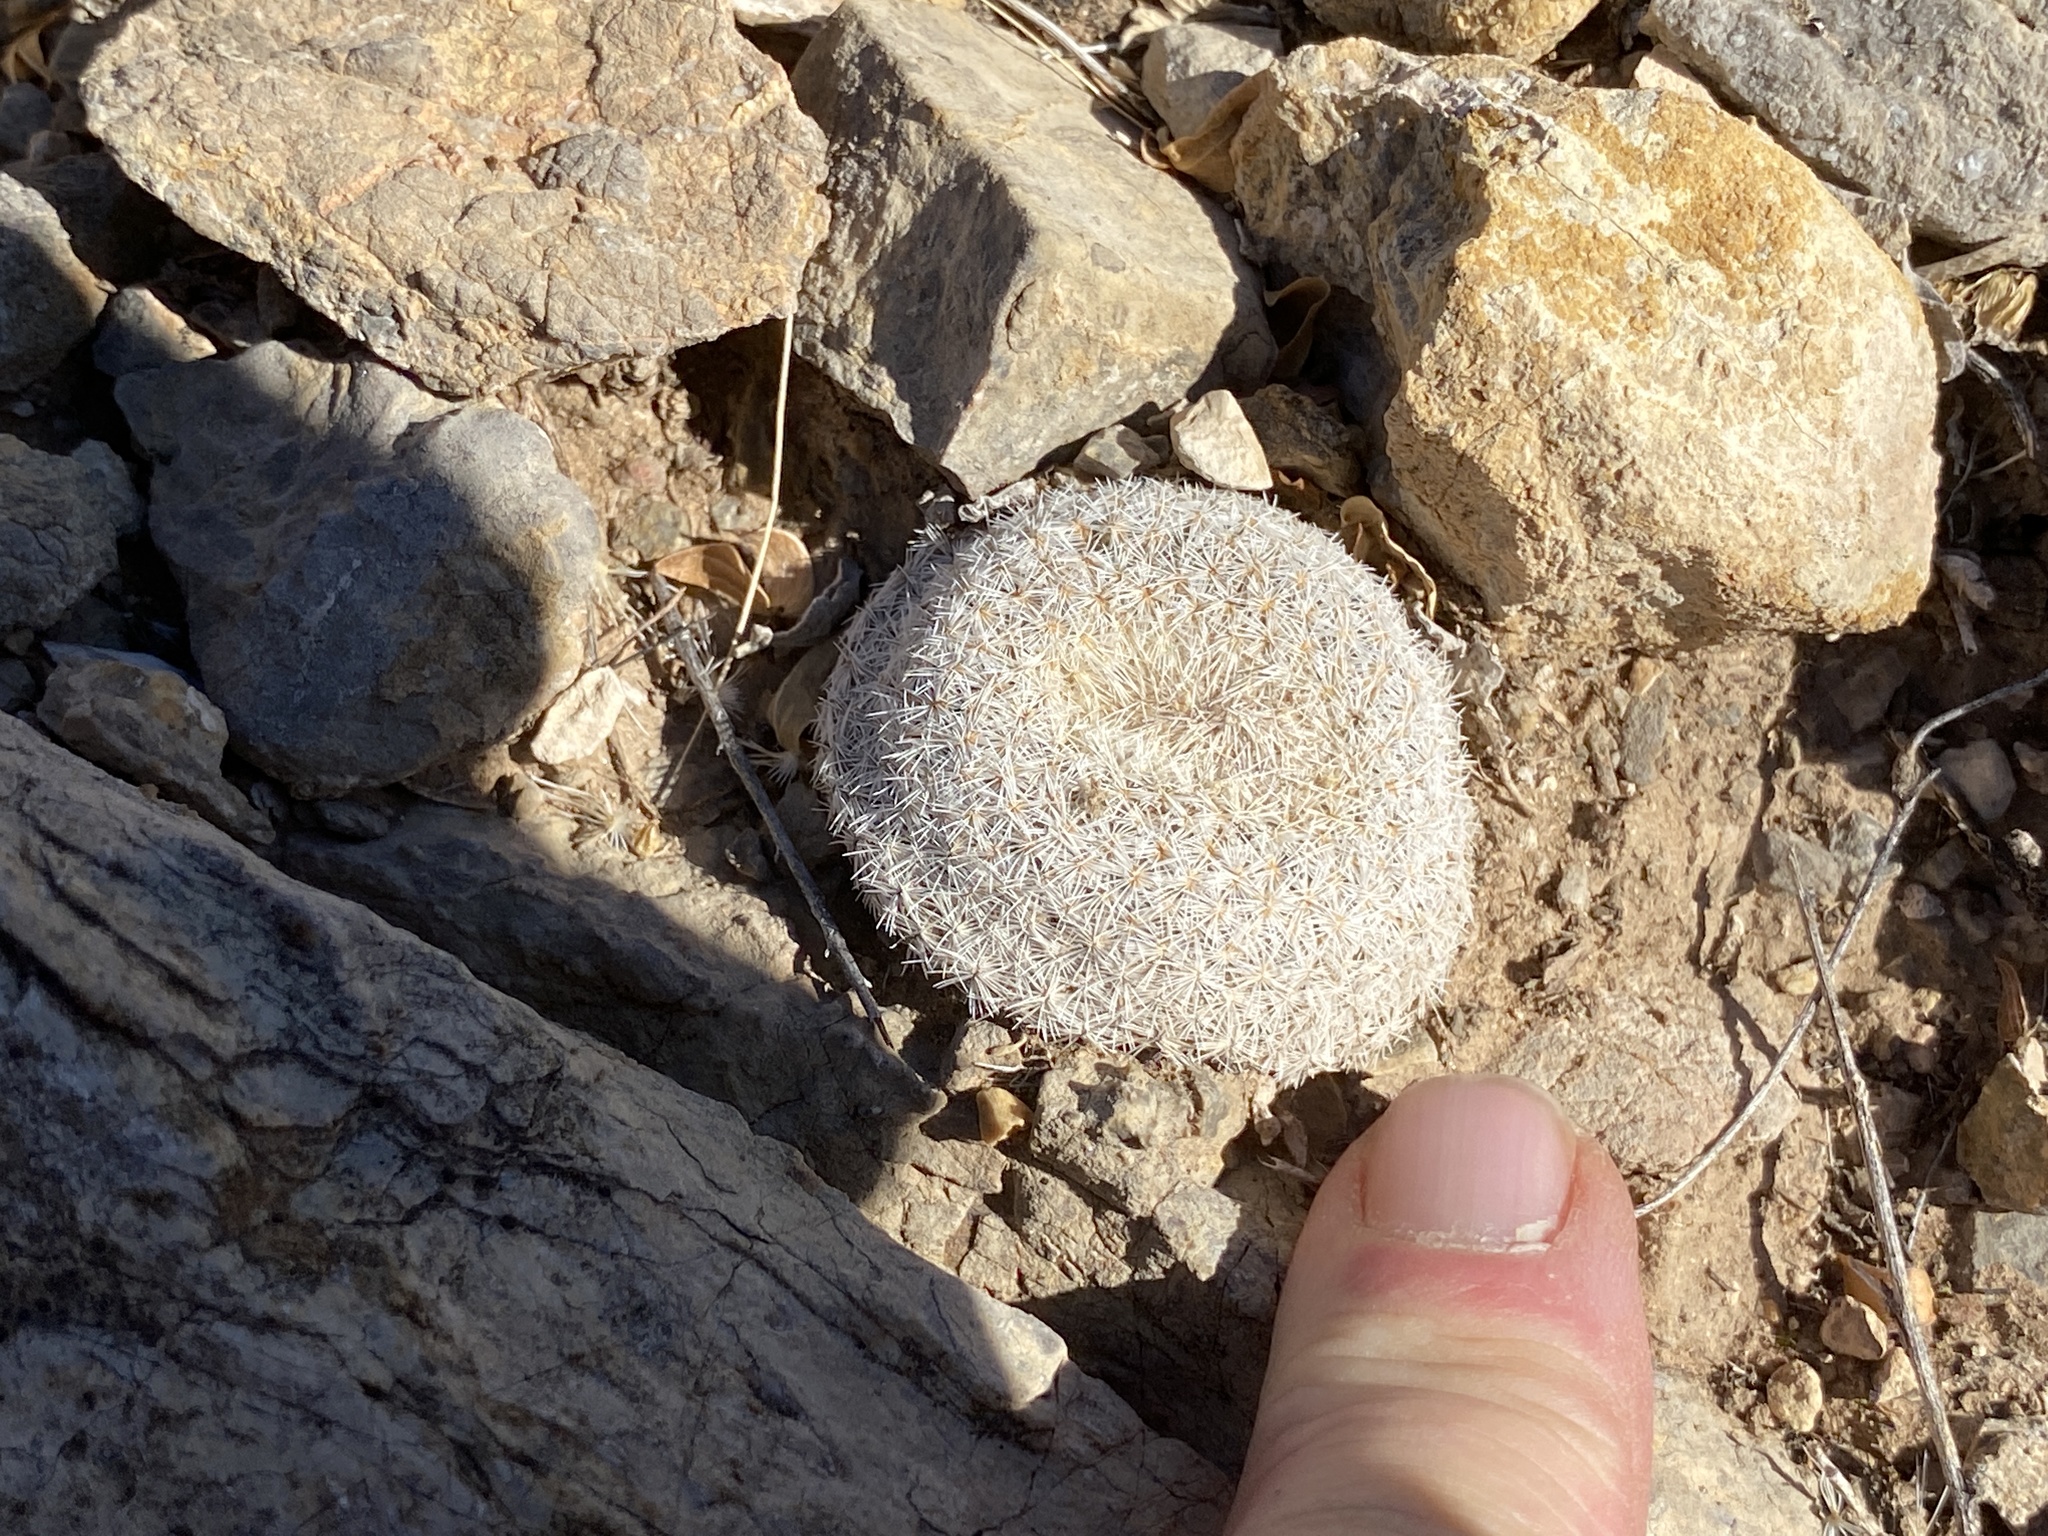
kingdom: Plantae
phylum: Tracheophyta
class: Magnoliopsida
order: Caryophyllales
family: Cactaceae
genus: Epithelantha
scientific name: Epithelantha micromeris
